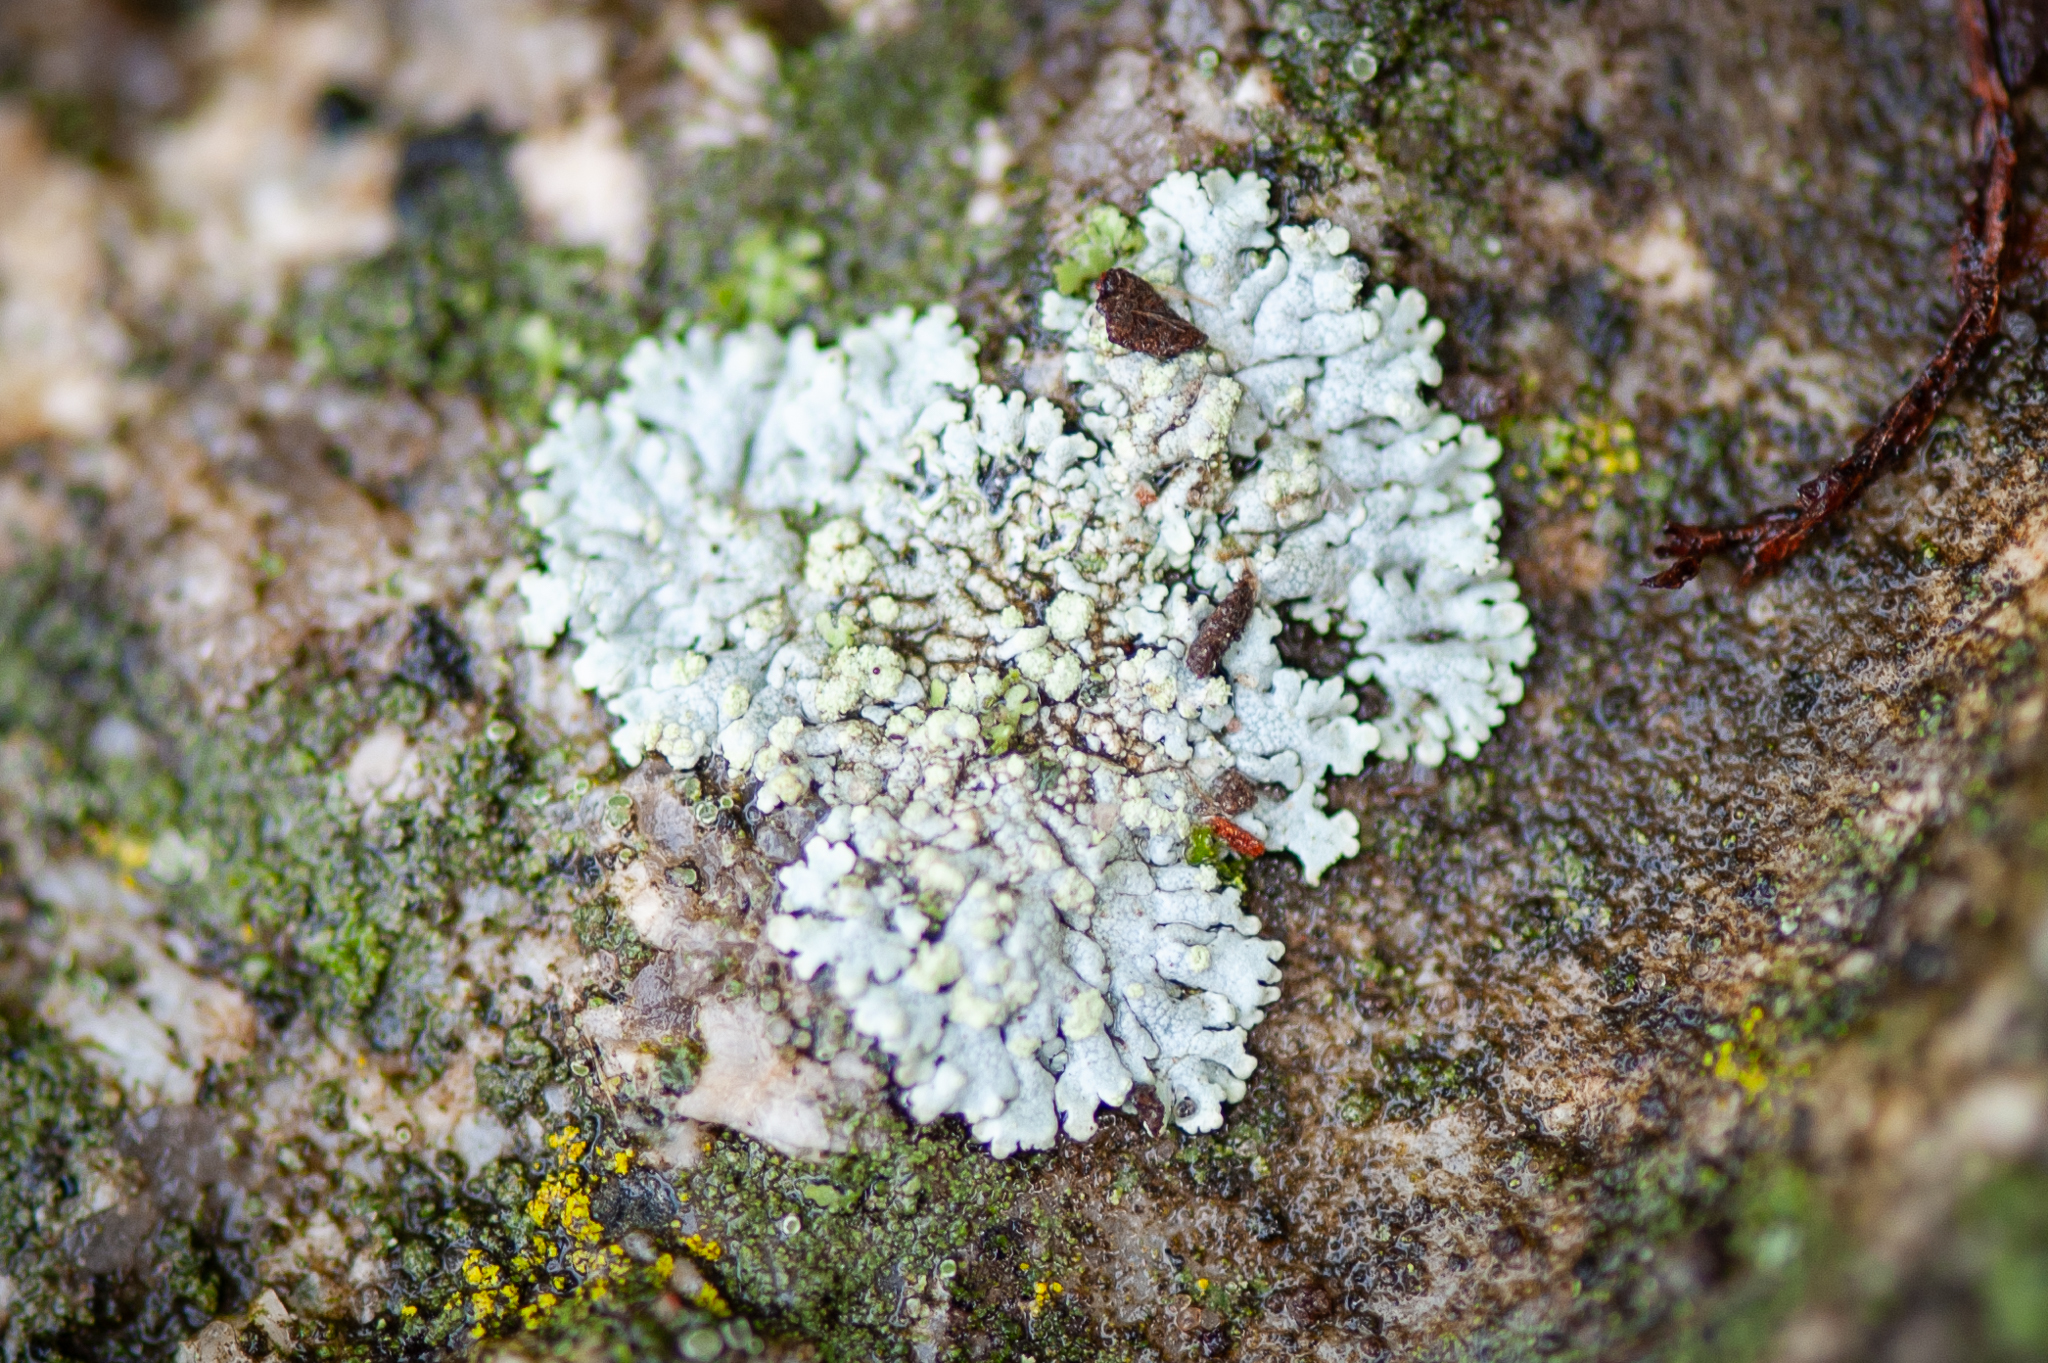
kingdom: Fungi
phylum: Ascomycota
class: Lecanoromycetes
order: Caliciales
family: Physciaceae
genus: Physcia
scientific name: Physcia caesia
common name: Blue-gray rosette lichen
